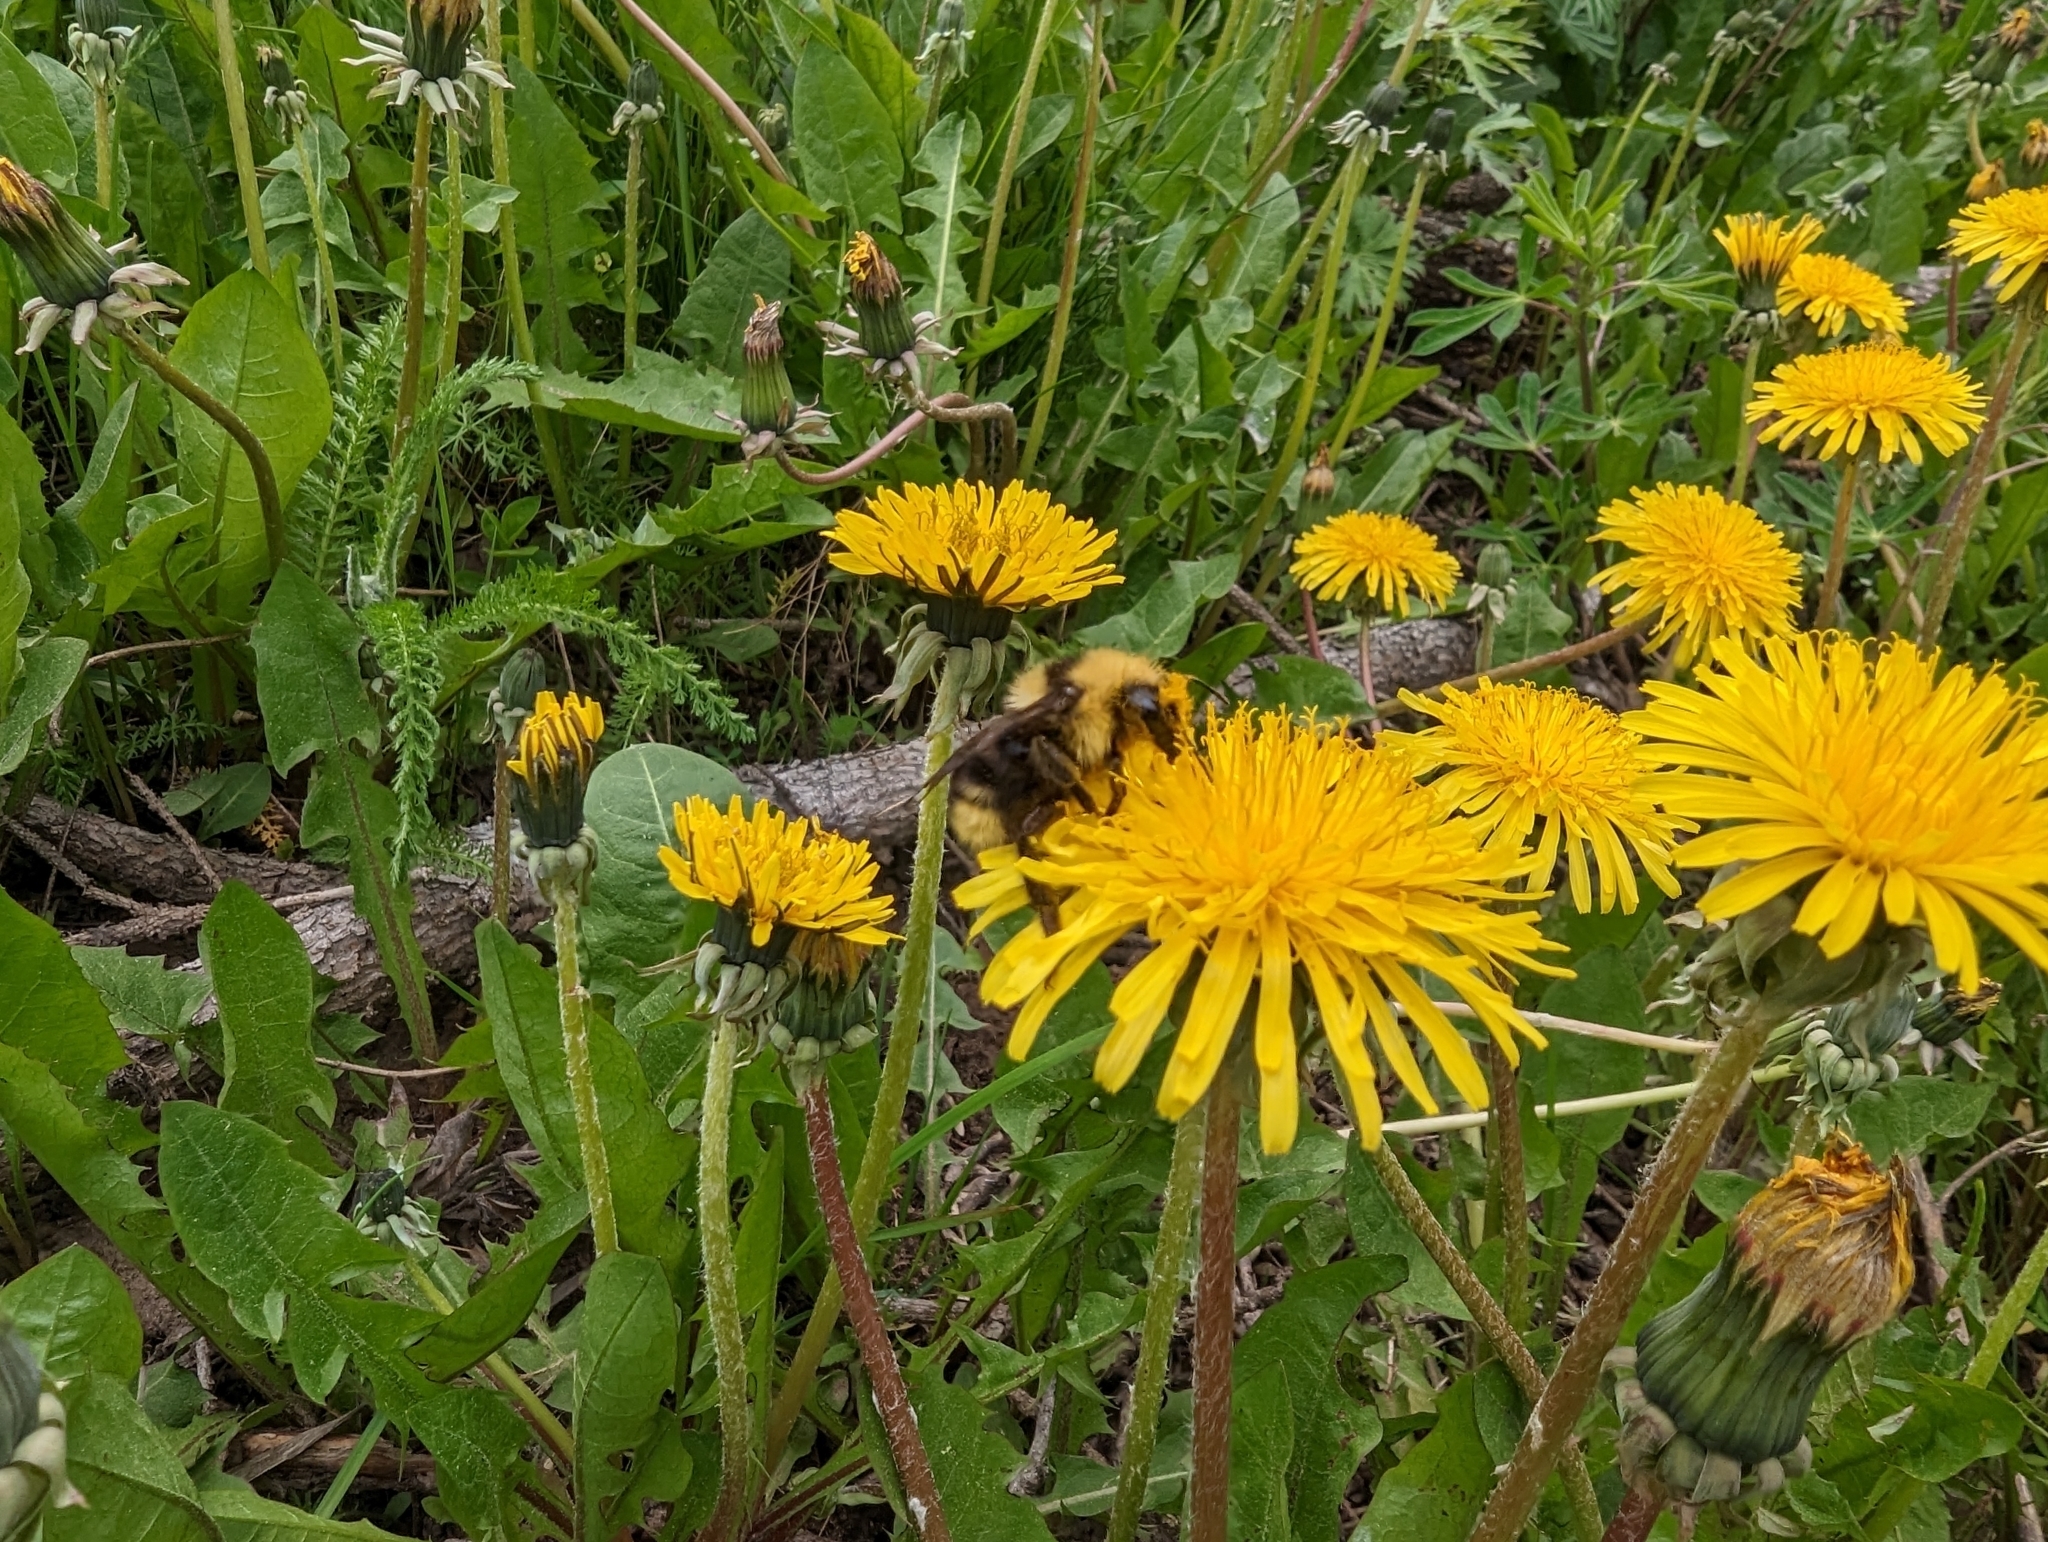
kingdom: Animalia
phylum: Arthropoda
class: Insecta
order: Hymenoptera
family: Apidae
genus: Bombus
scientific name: Bombus insularis
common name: Indiscriminate cuckoo bumble bee
